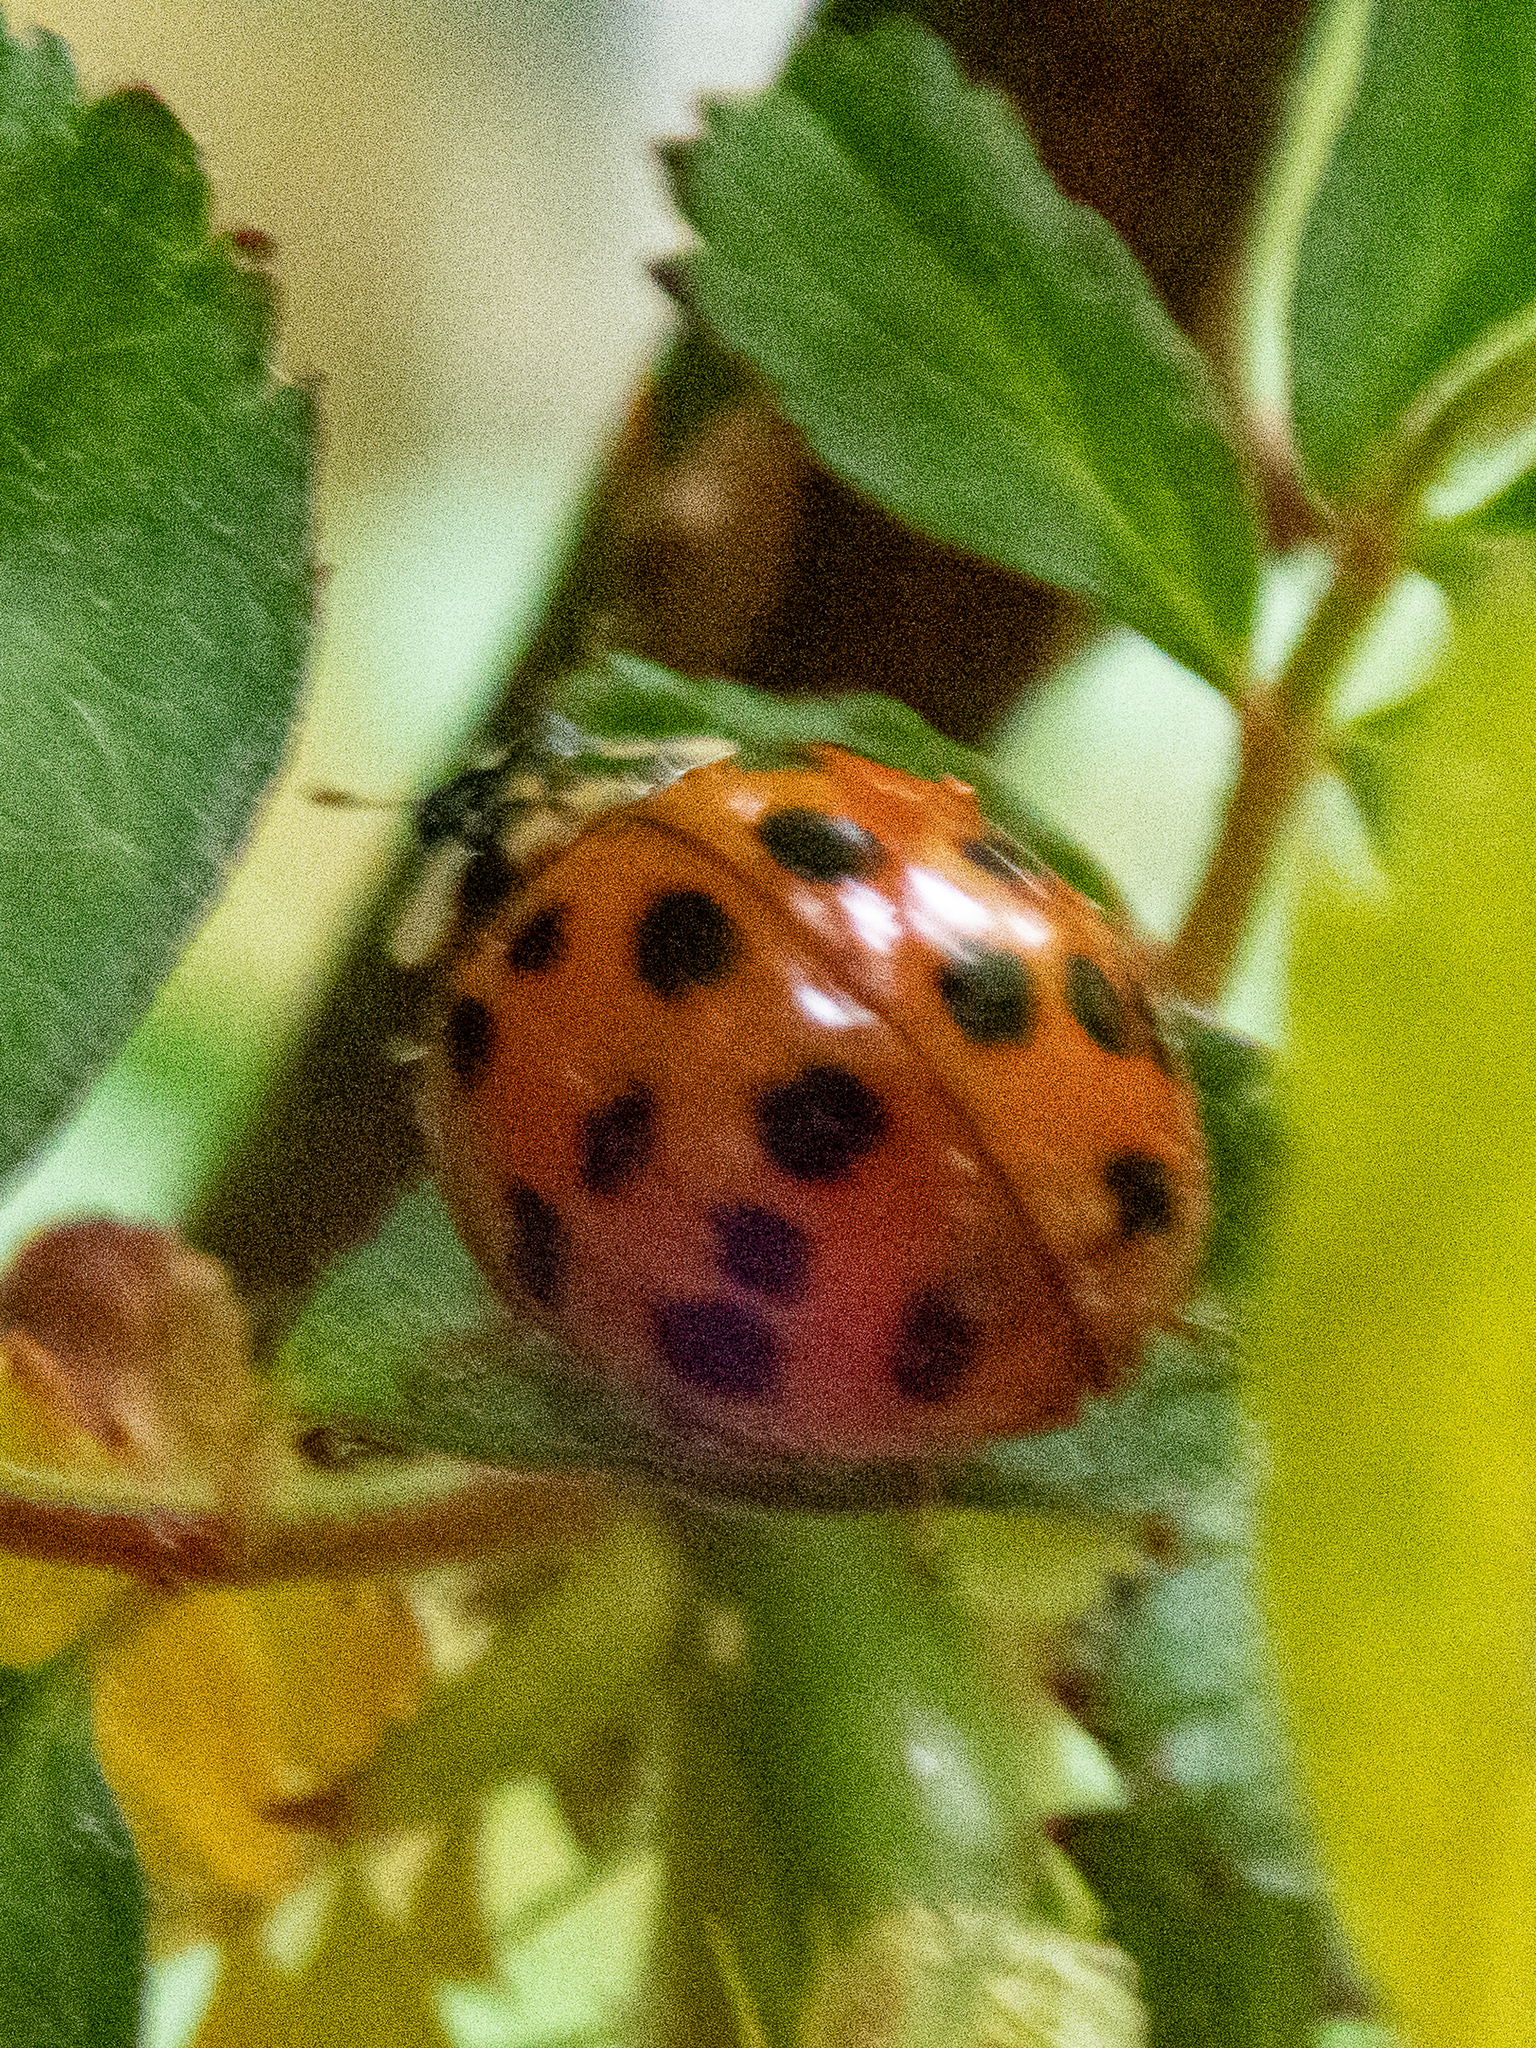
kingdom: Animalia
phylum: Arthropoda
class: Insecta
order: Coleoptera
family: Coccinellidae
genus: Harmonia
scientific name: Harmonia axyridis
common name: Harlequin ladybird
